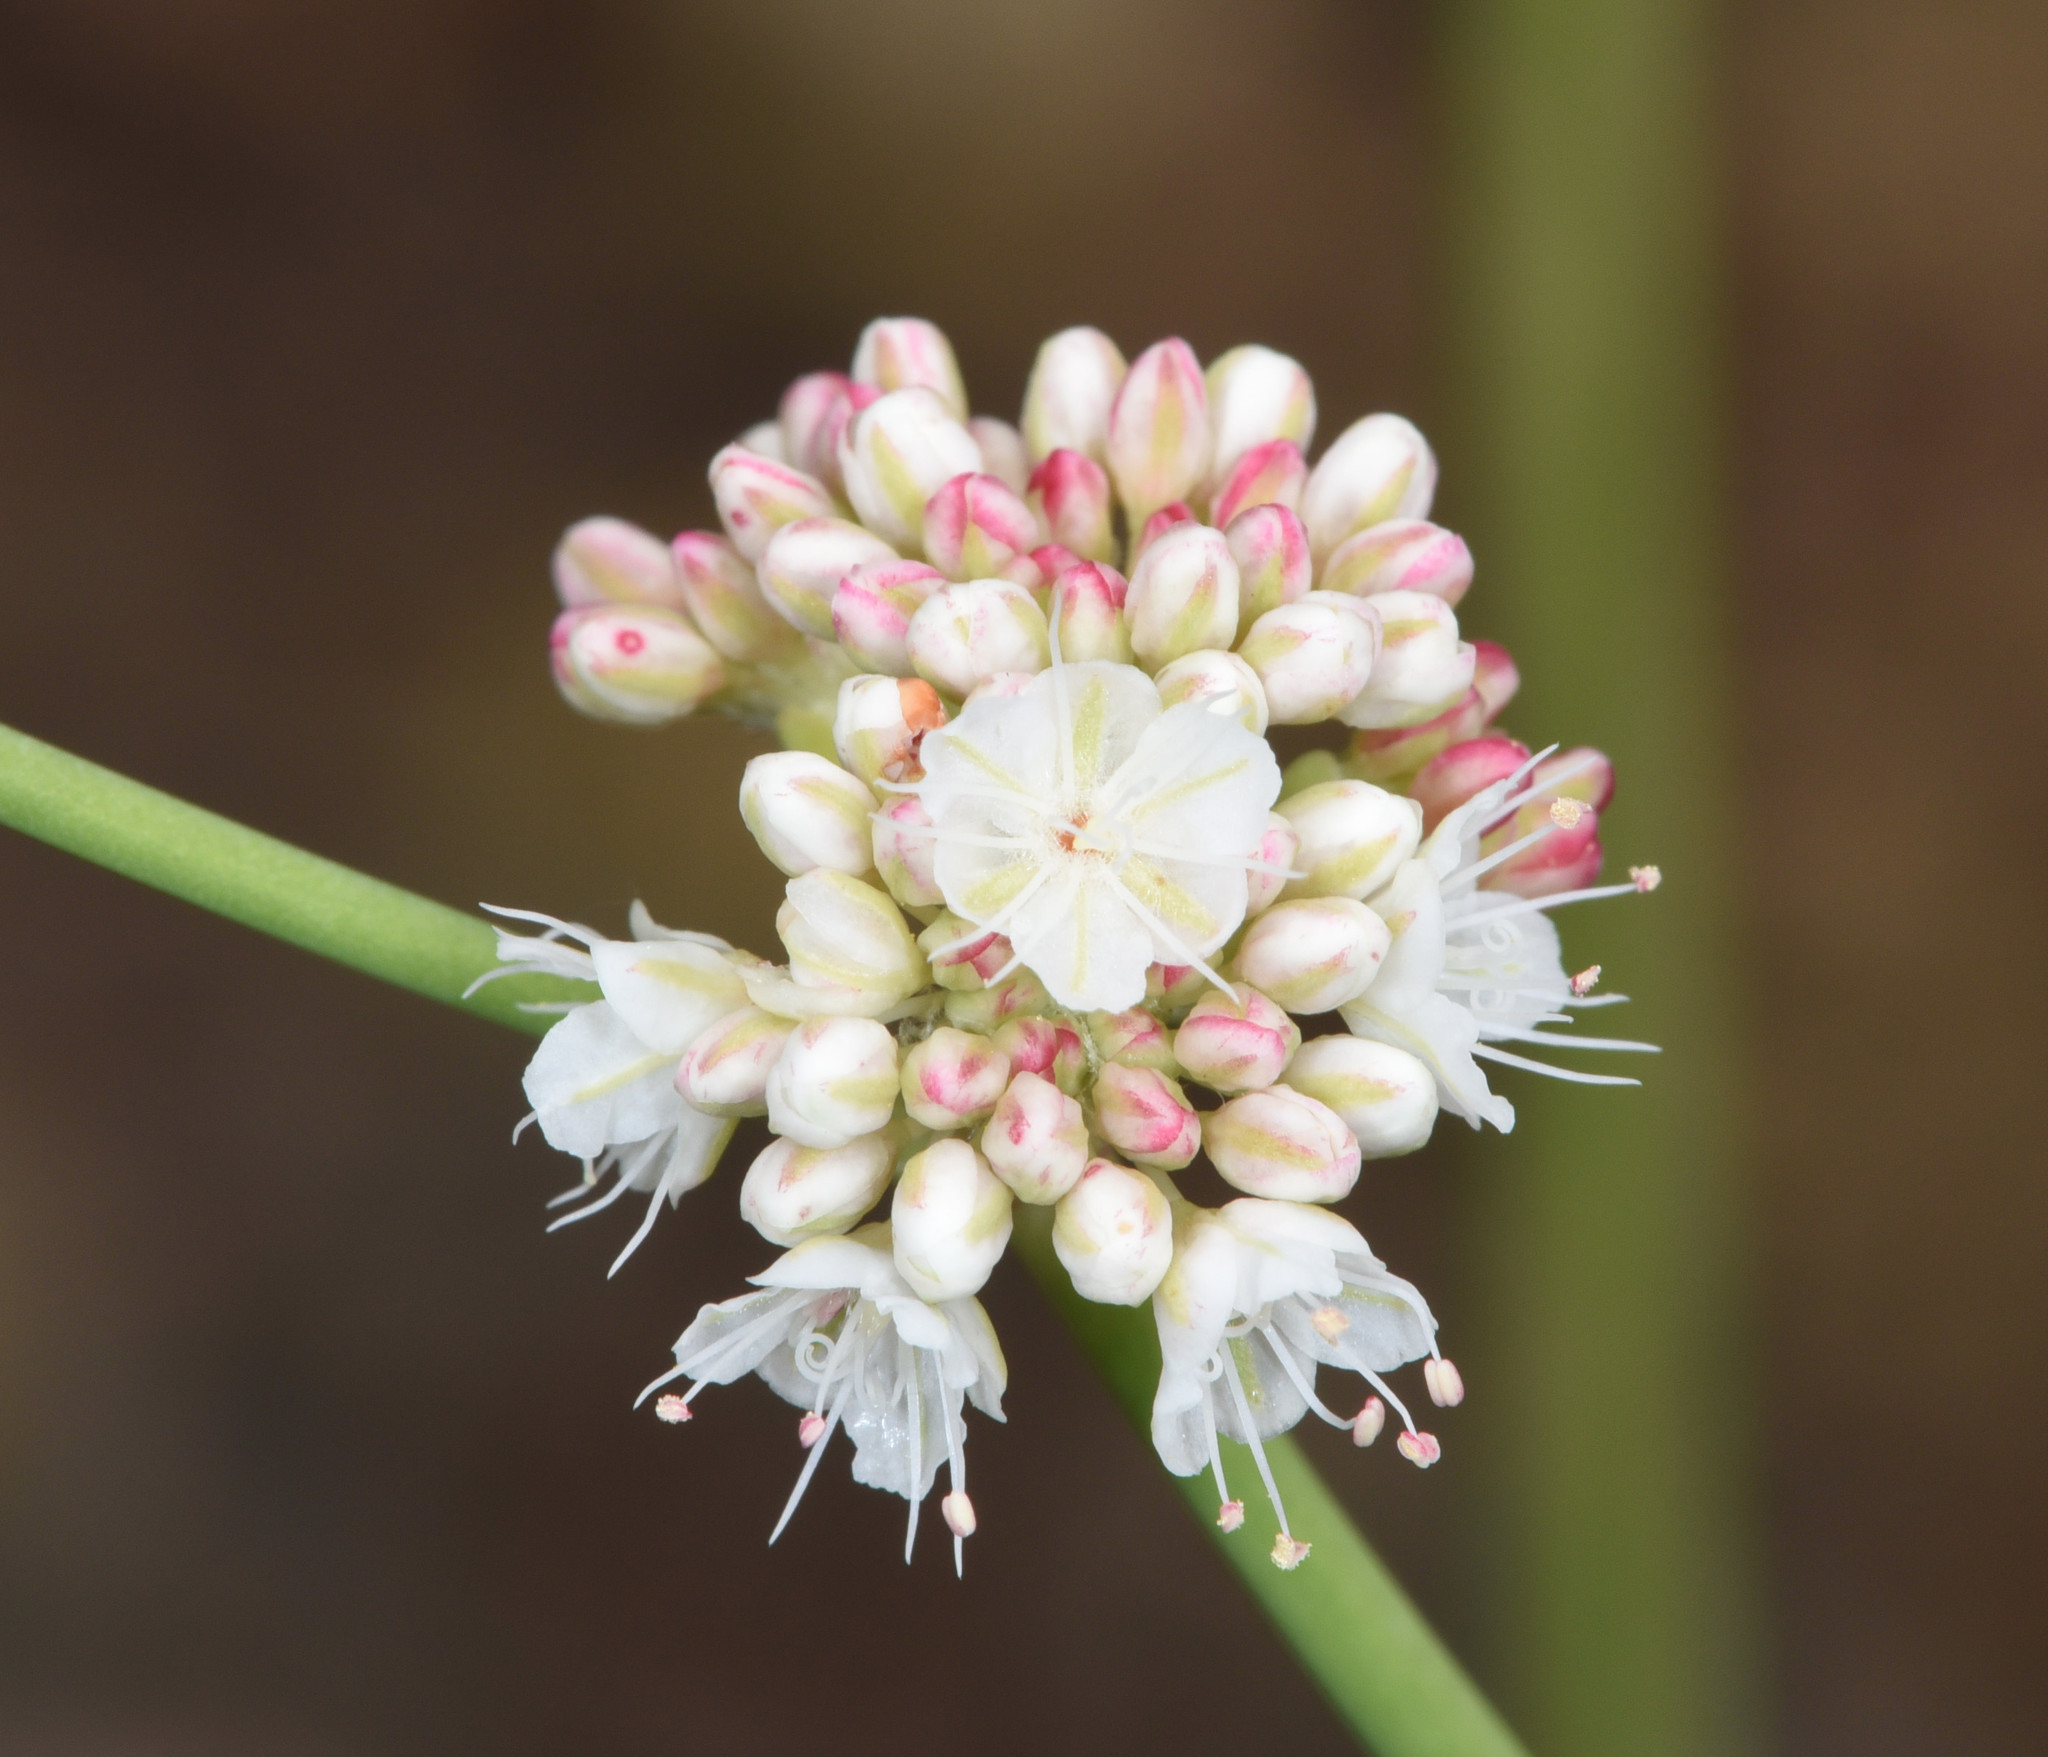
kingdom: Plantae
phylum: Tracheophyta
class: Magnoliopsida
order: Caryophyllales
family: Polygonaceae
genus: Eriogonum
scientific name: Eriogonum nudum
